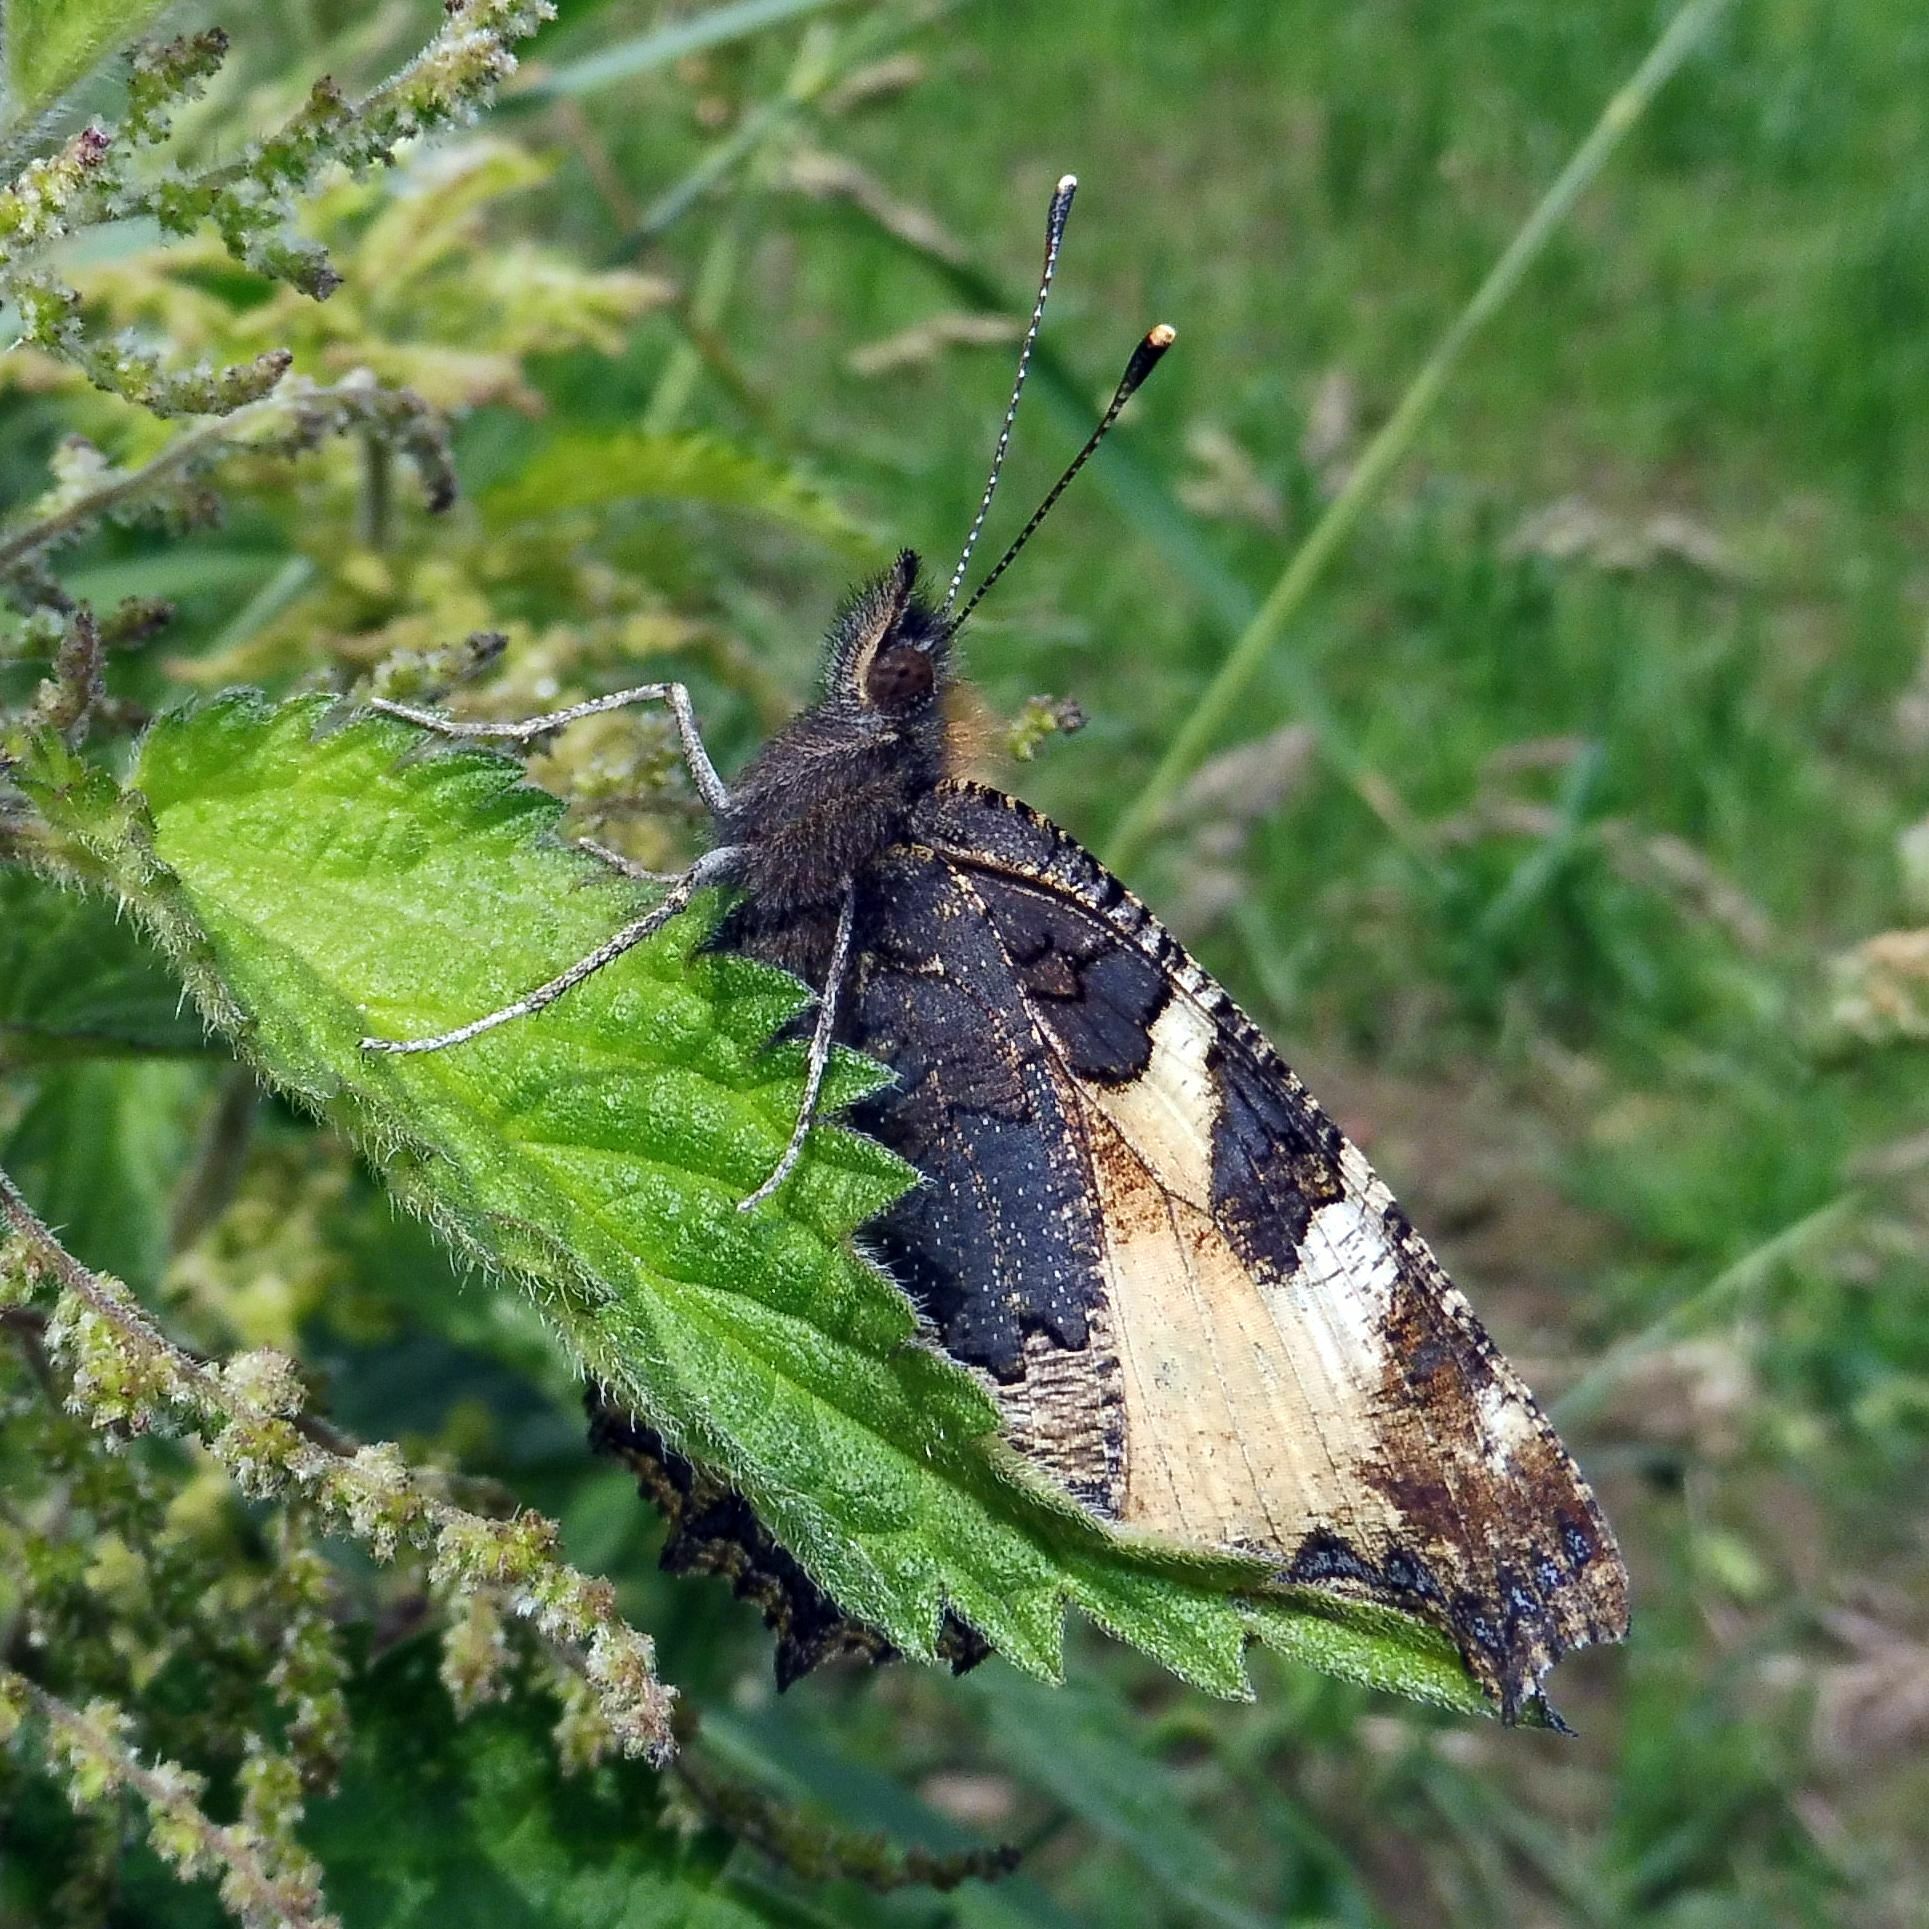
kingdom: Animalia
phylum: Arthropoda
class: Insecta
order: Lepidoptera
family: Nymphalidae
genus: Aglais
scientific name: Aglais urticae
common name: Small tortoiseshell
